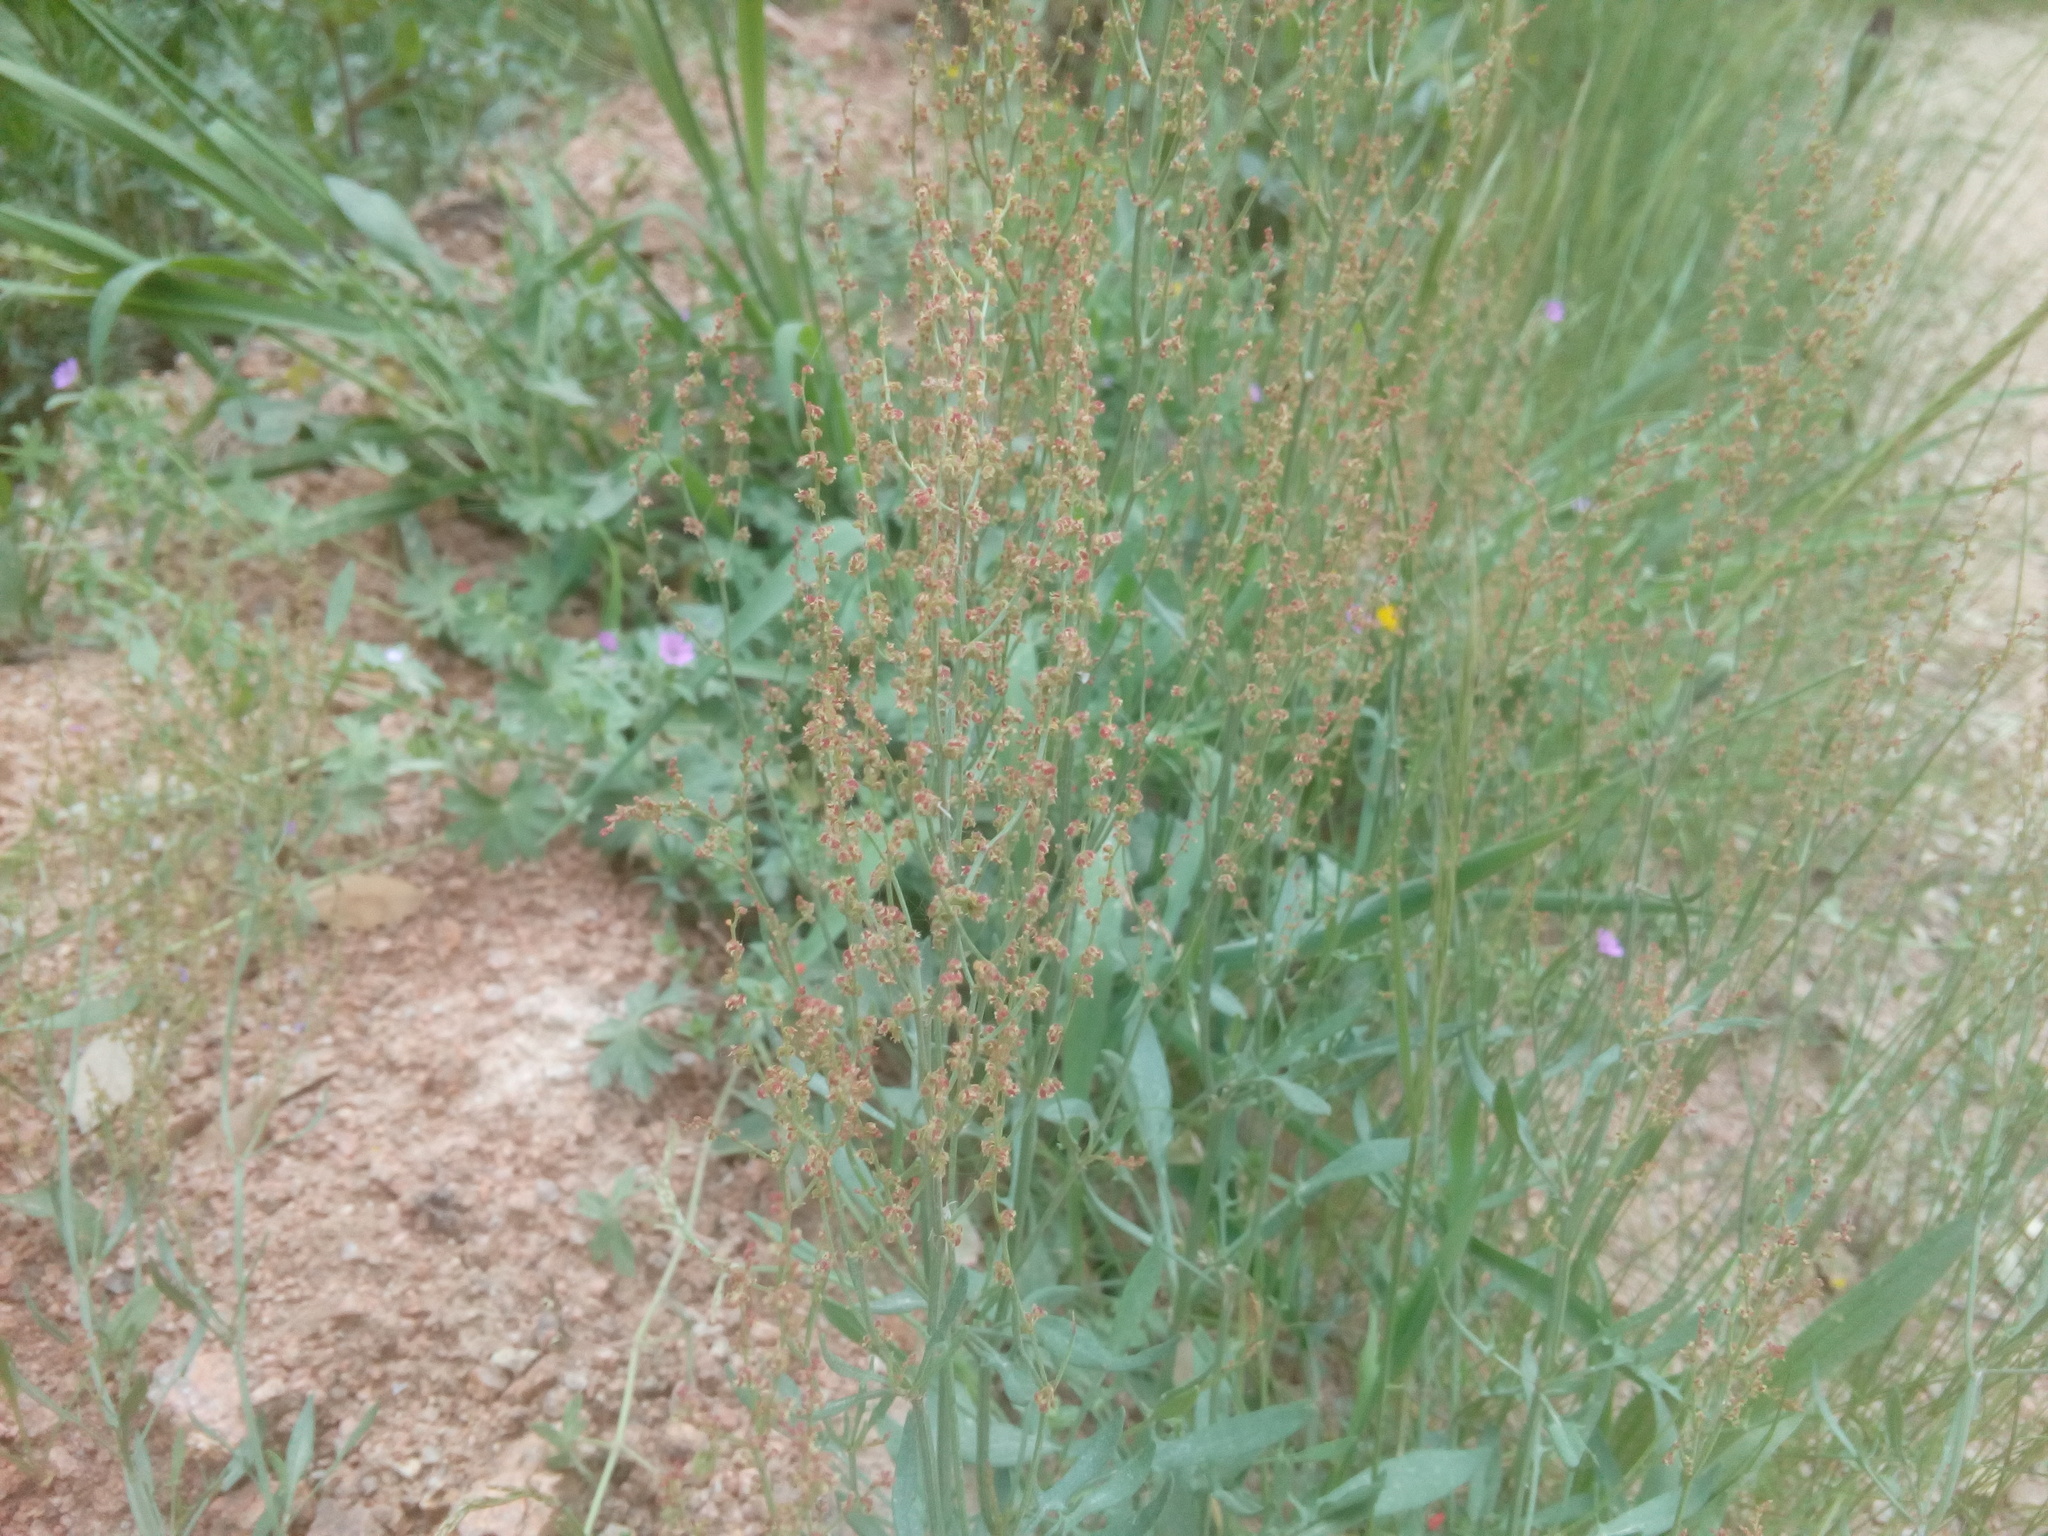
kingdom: Plantae
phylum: Tracheophyta
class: Magnoliopsida
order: Caryophyllales
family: Polygonaceae
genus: Rumex
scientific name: Rumex acetosella
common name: Common sheep sorrel
